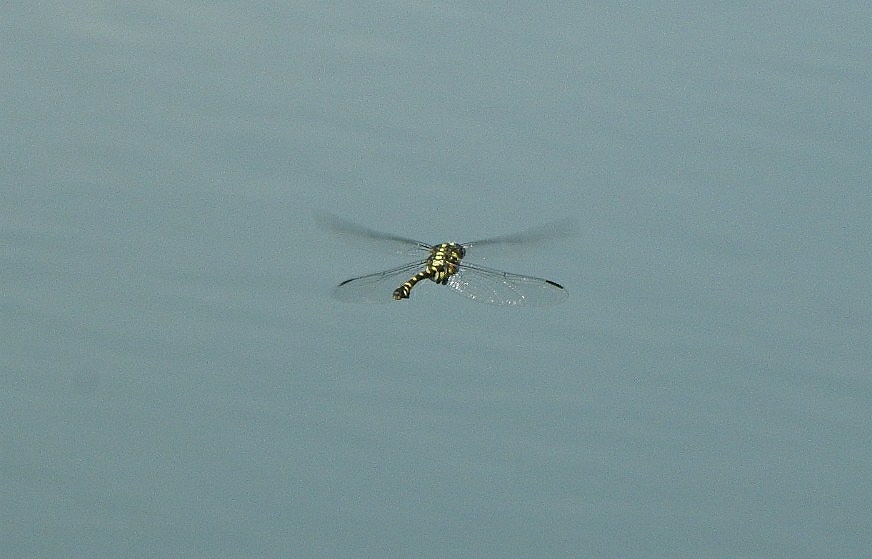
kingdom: Animalia
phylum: Arthropoda
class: Insecta
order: Odonata
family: Gomphidae
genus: Ictinogomphus
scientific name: Ictinogomphus rapax
